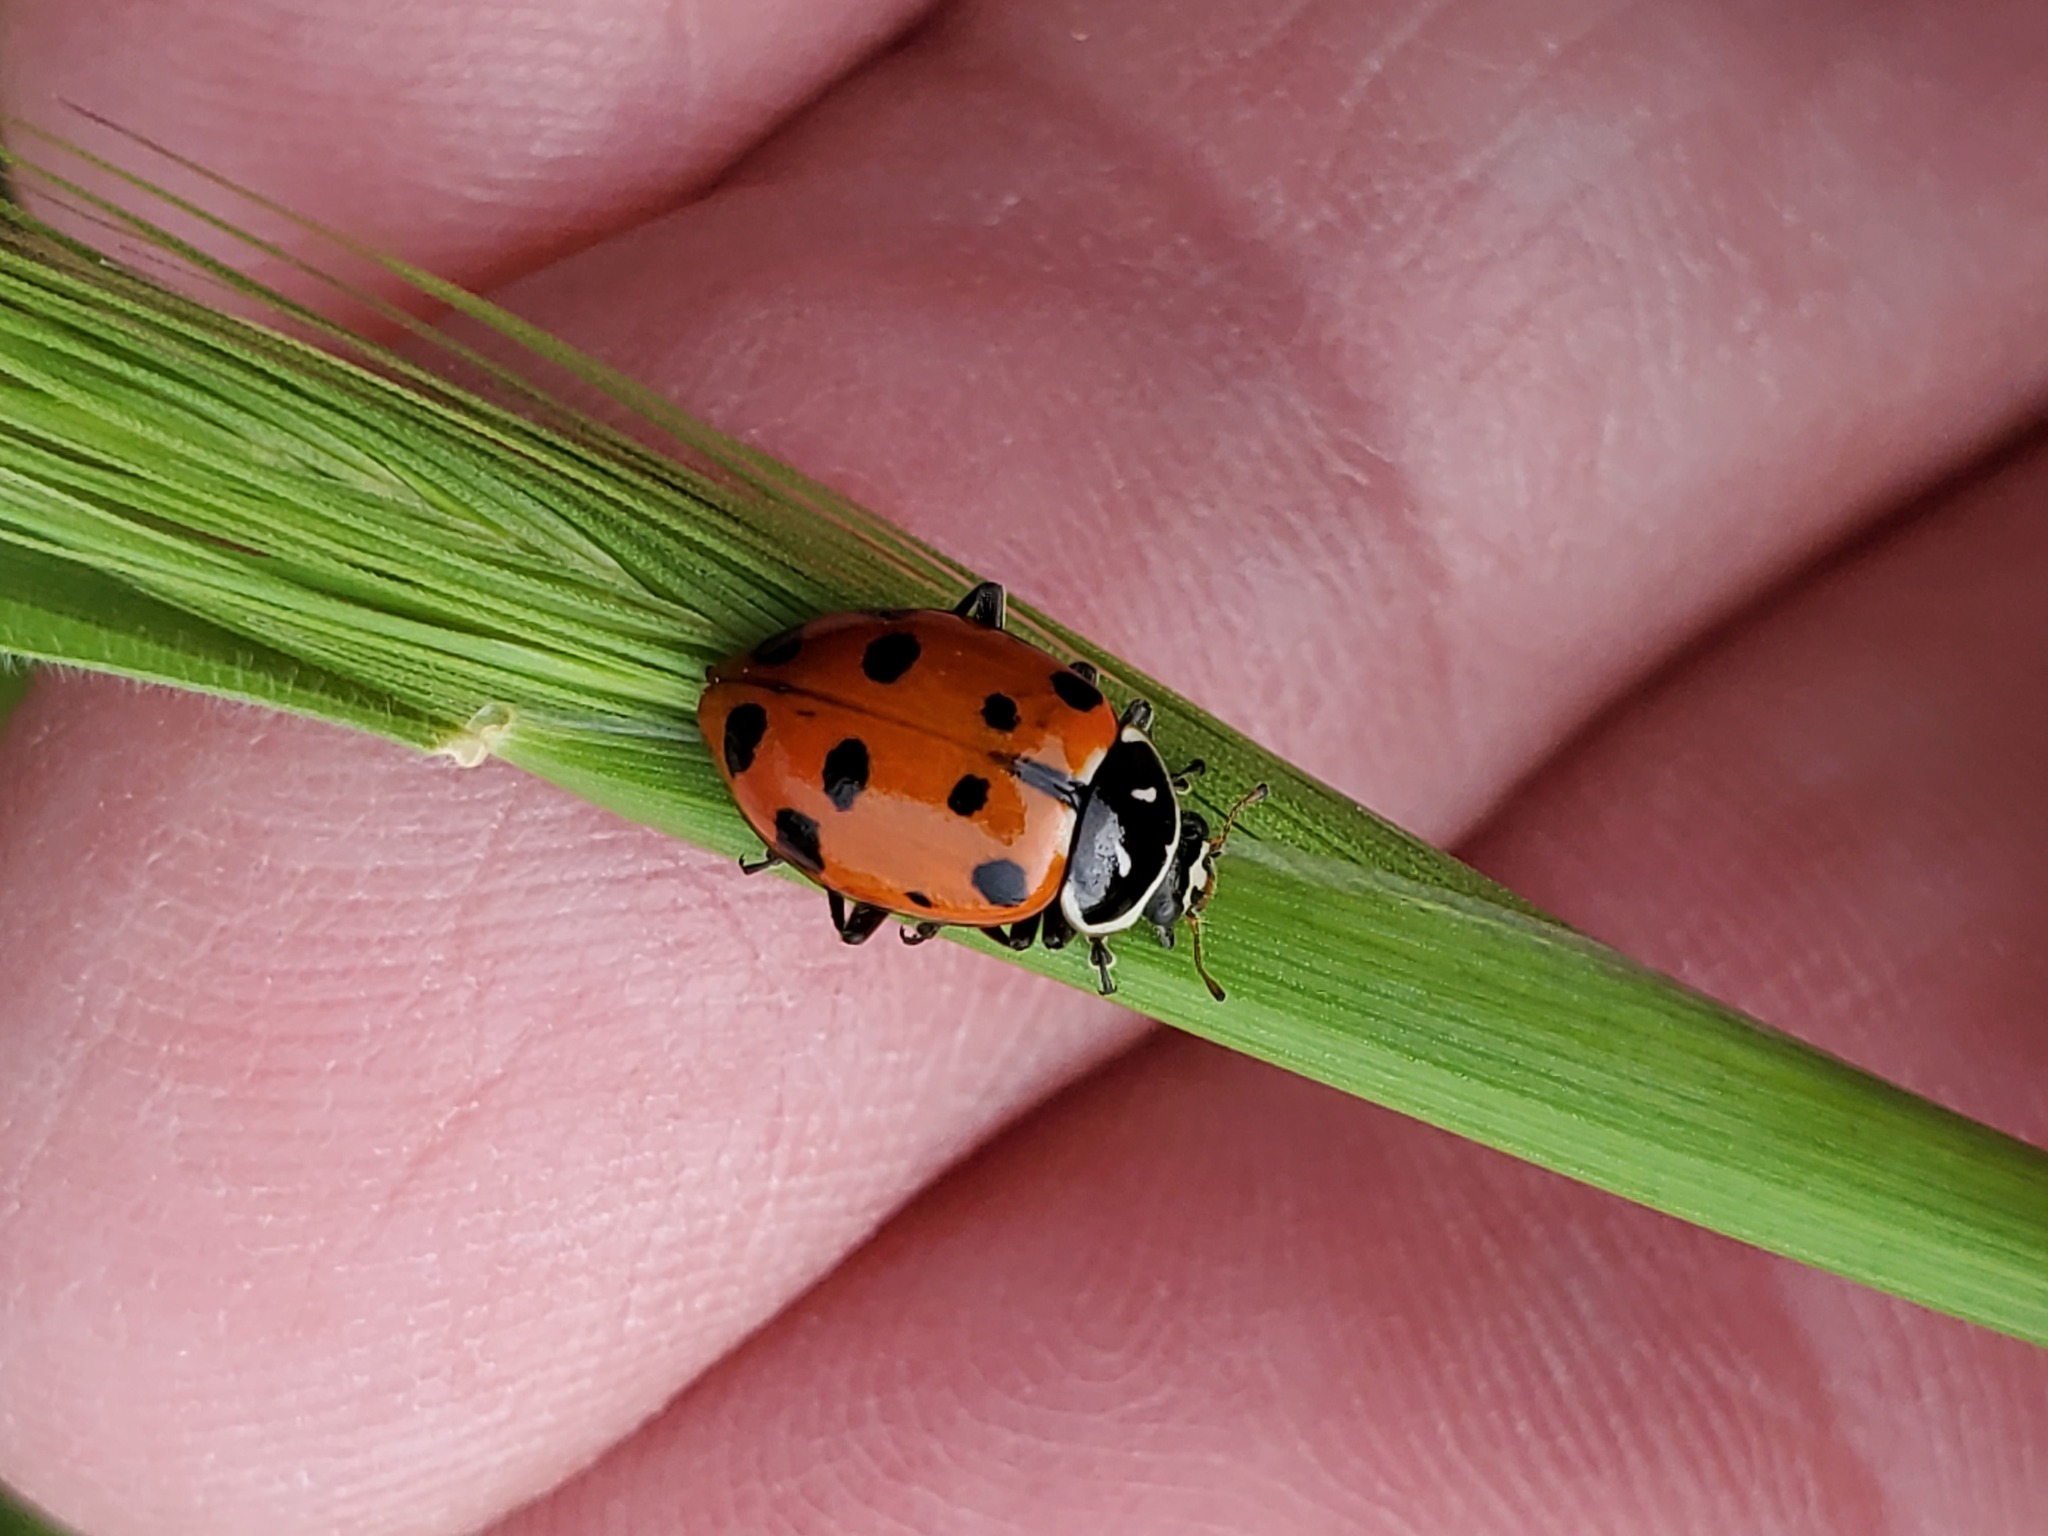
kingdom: Animalia
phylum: Arthropoda
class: Insecta
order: Coleoptera
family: Coccinellidae
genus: Hippodamia
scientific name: Hippodamia convergens
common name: Convergent lady beetle
